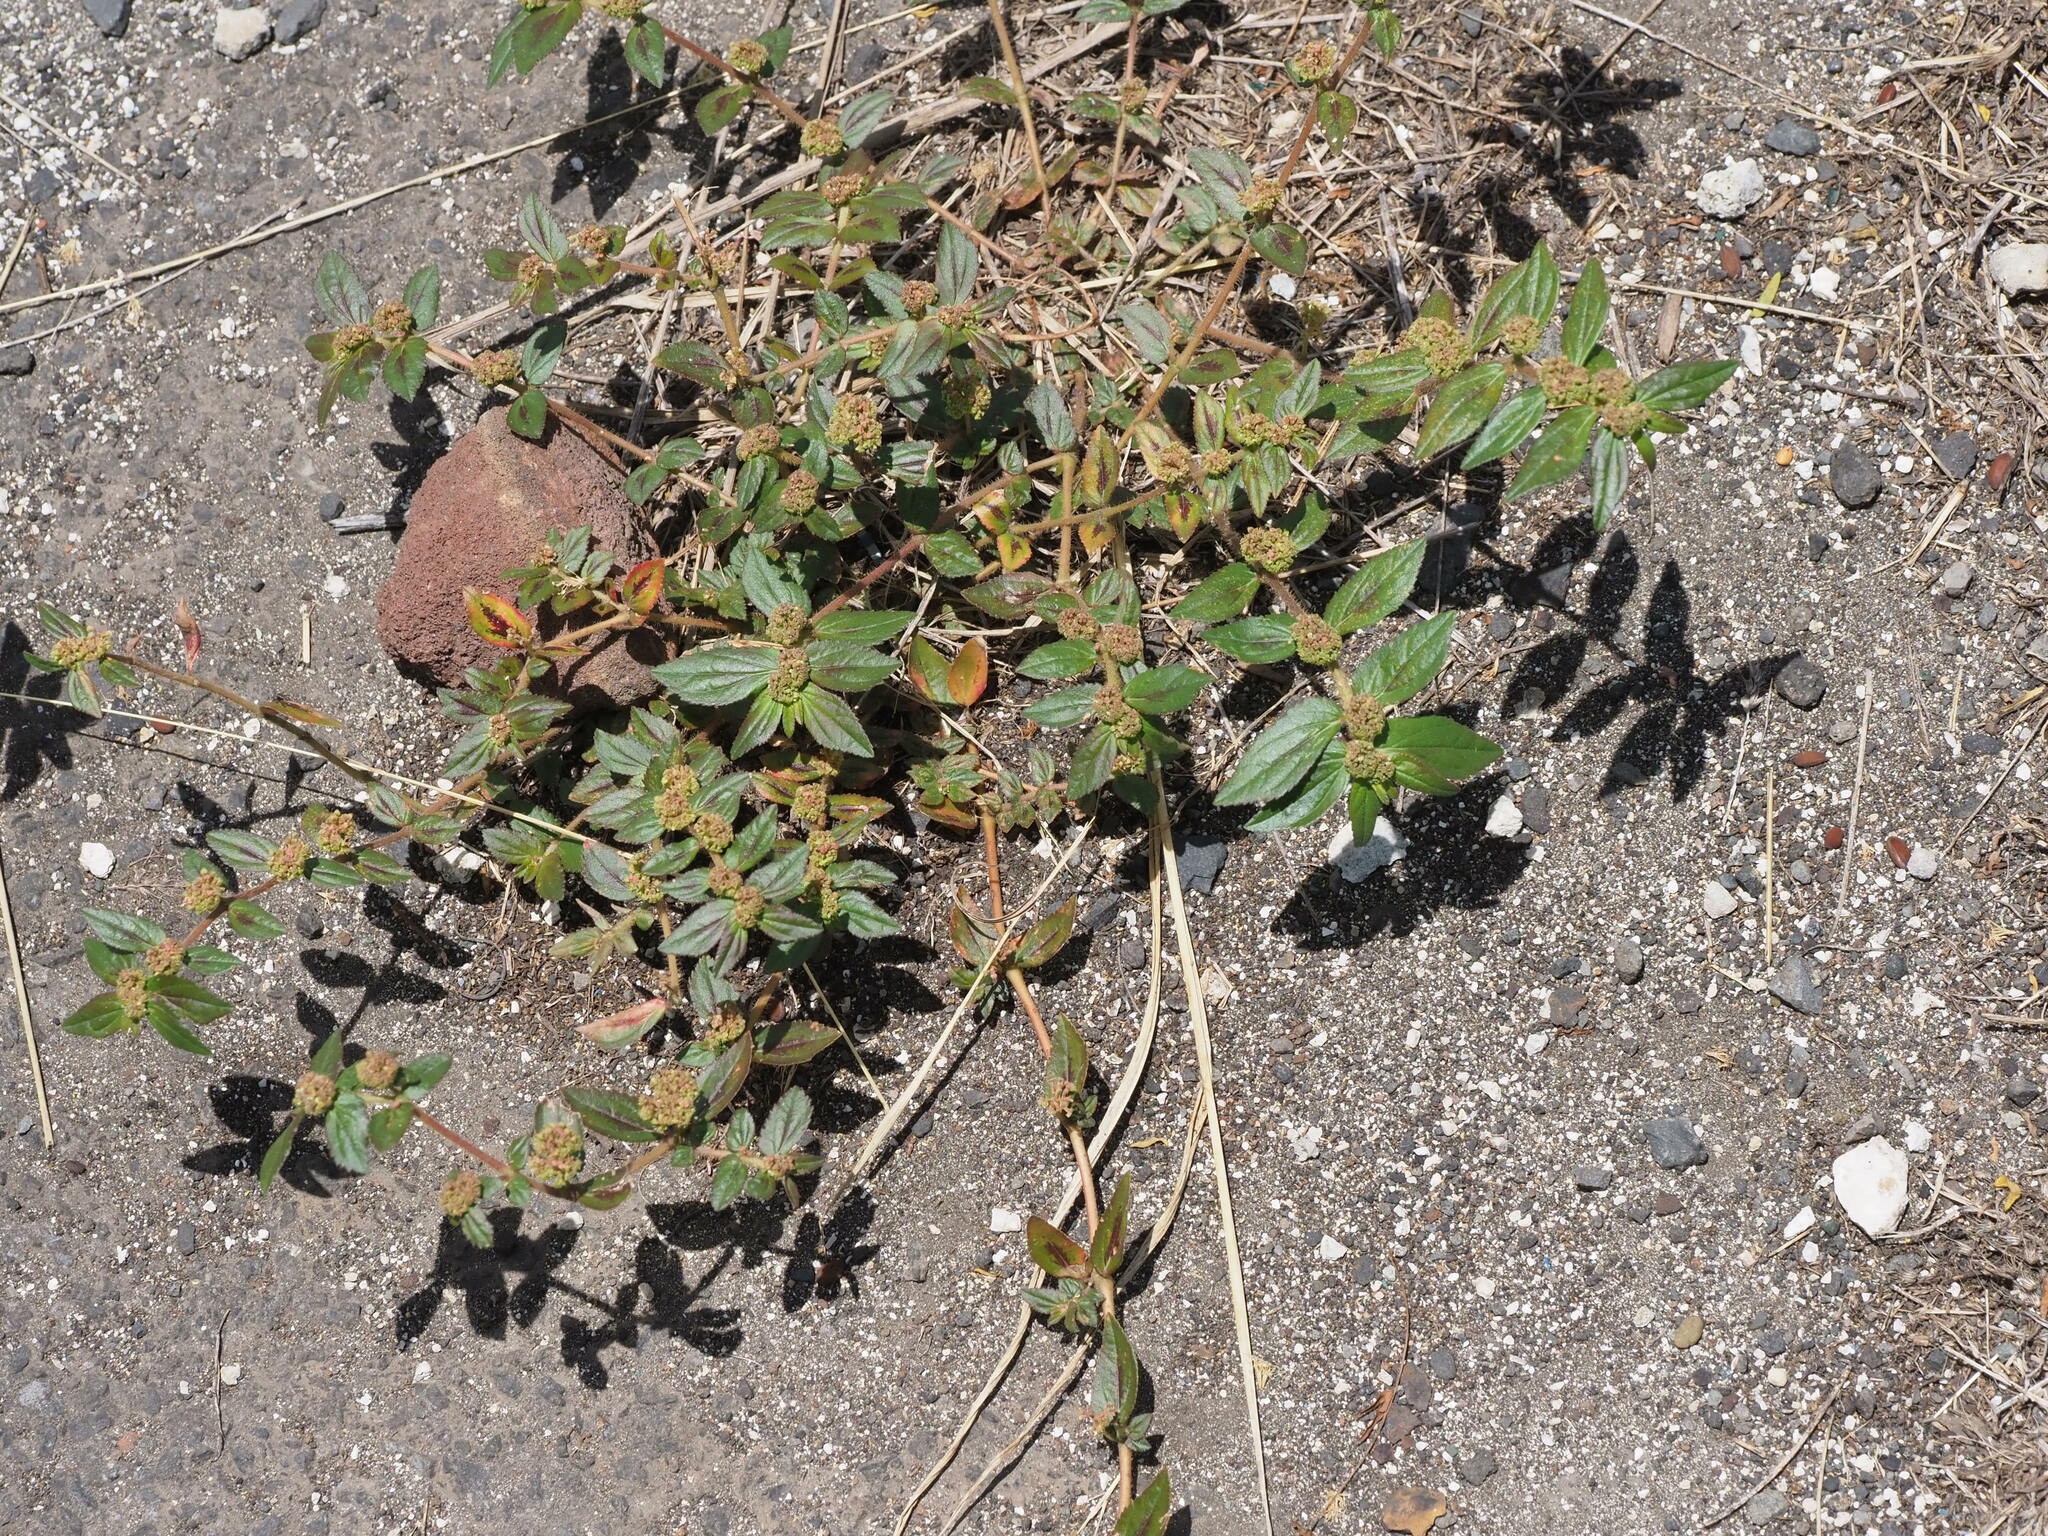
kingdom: Plantae
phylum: Tracheophyta
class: Magnoliopsida
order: Malpighiales
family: Euphorbiaceae
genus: Euphorbia
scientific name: Euphorbia hirta
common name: Pillpod sandmat
